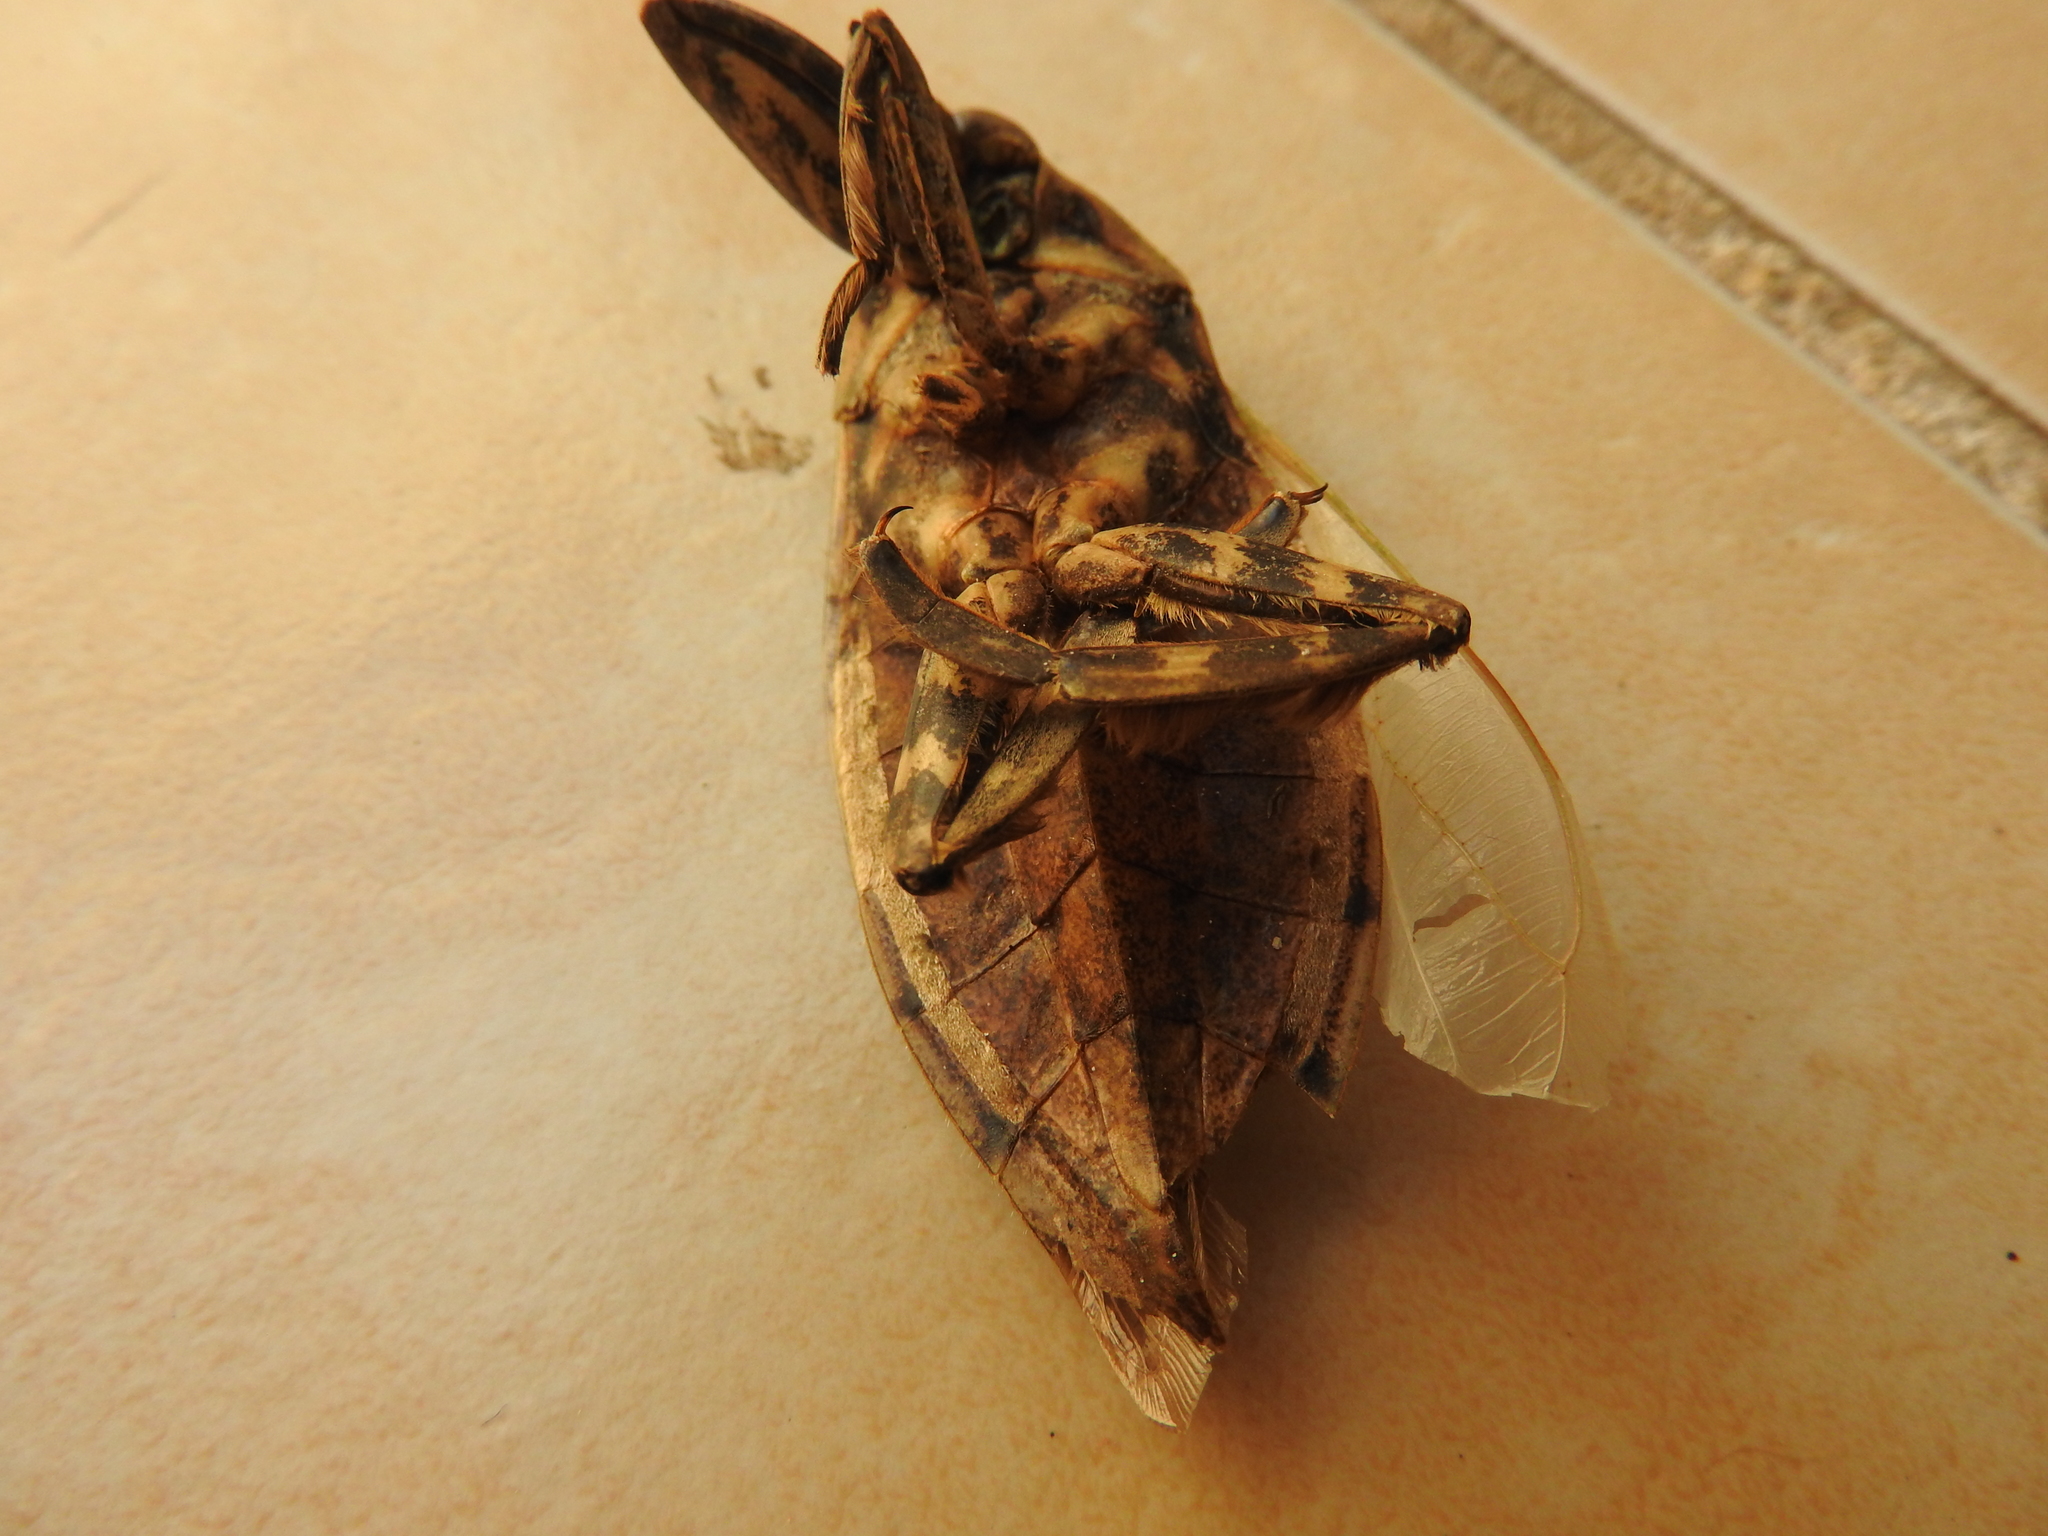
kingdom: Animalia
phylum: Arthropoda
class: Insecta
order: Hemiptera
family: Belostomatidae
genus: Lethocerus
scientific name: Lethocerus medius
